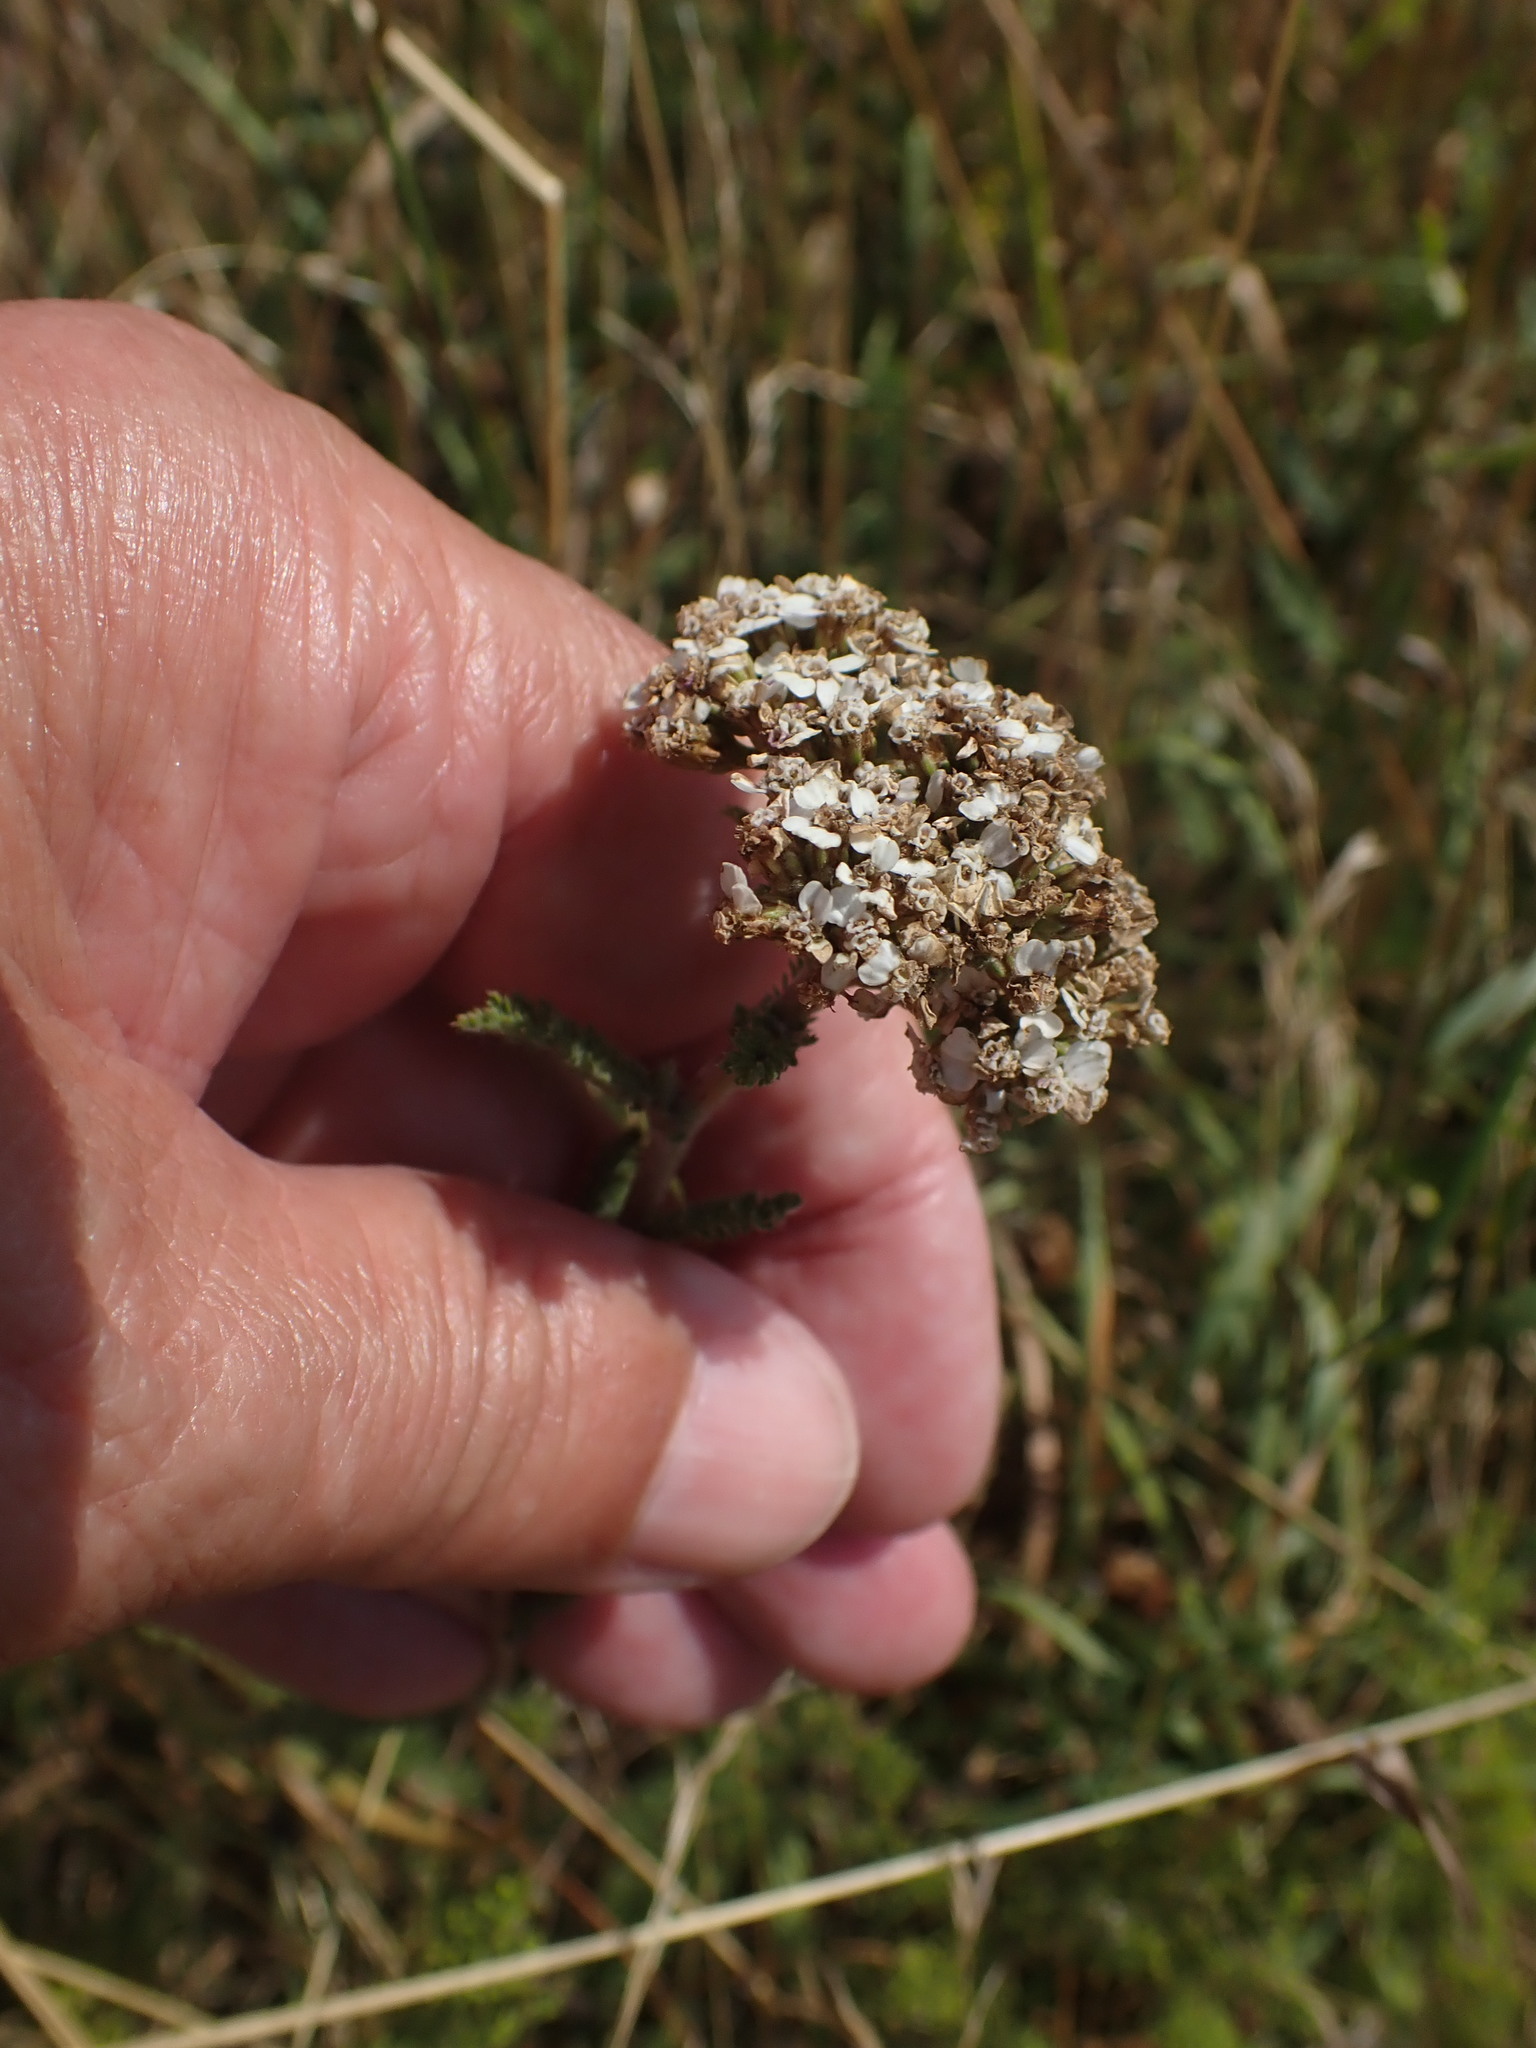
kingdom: Plantae
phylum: Tracheophyta
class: Magnoliopsida
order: Asterales
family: Asteraceae
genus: Achillea
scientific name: Achillea millefolium
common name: Yarrow
